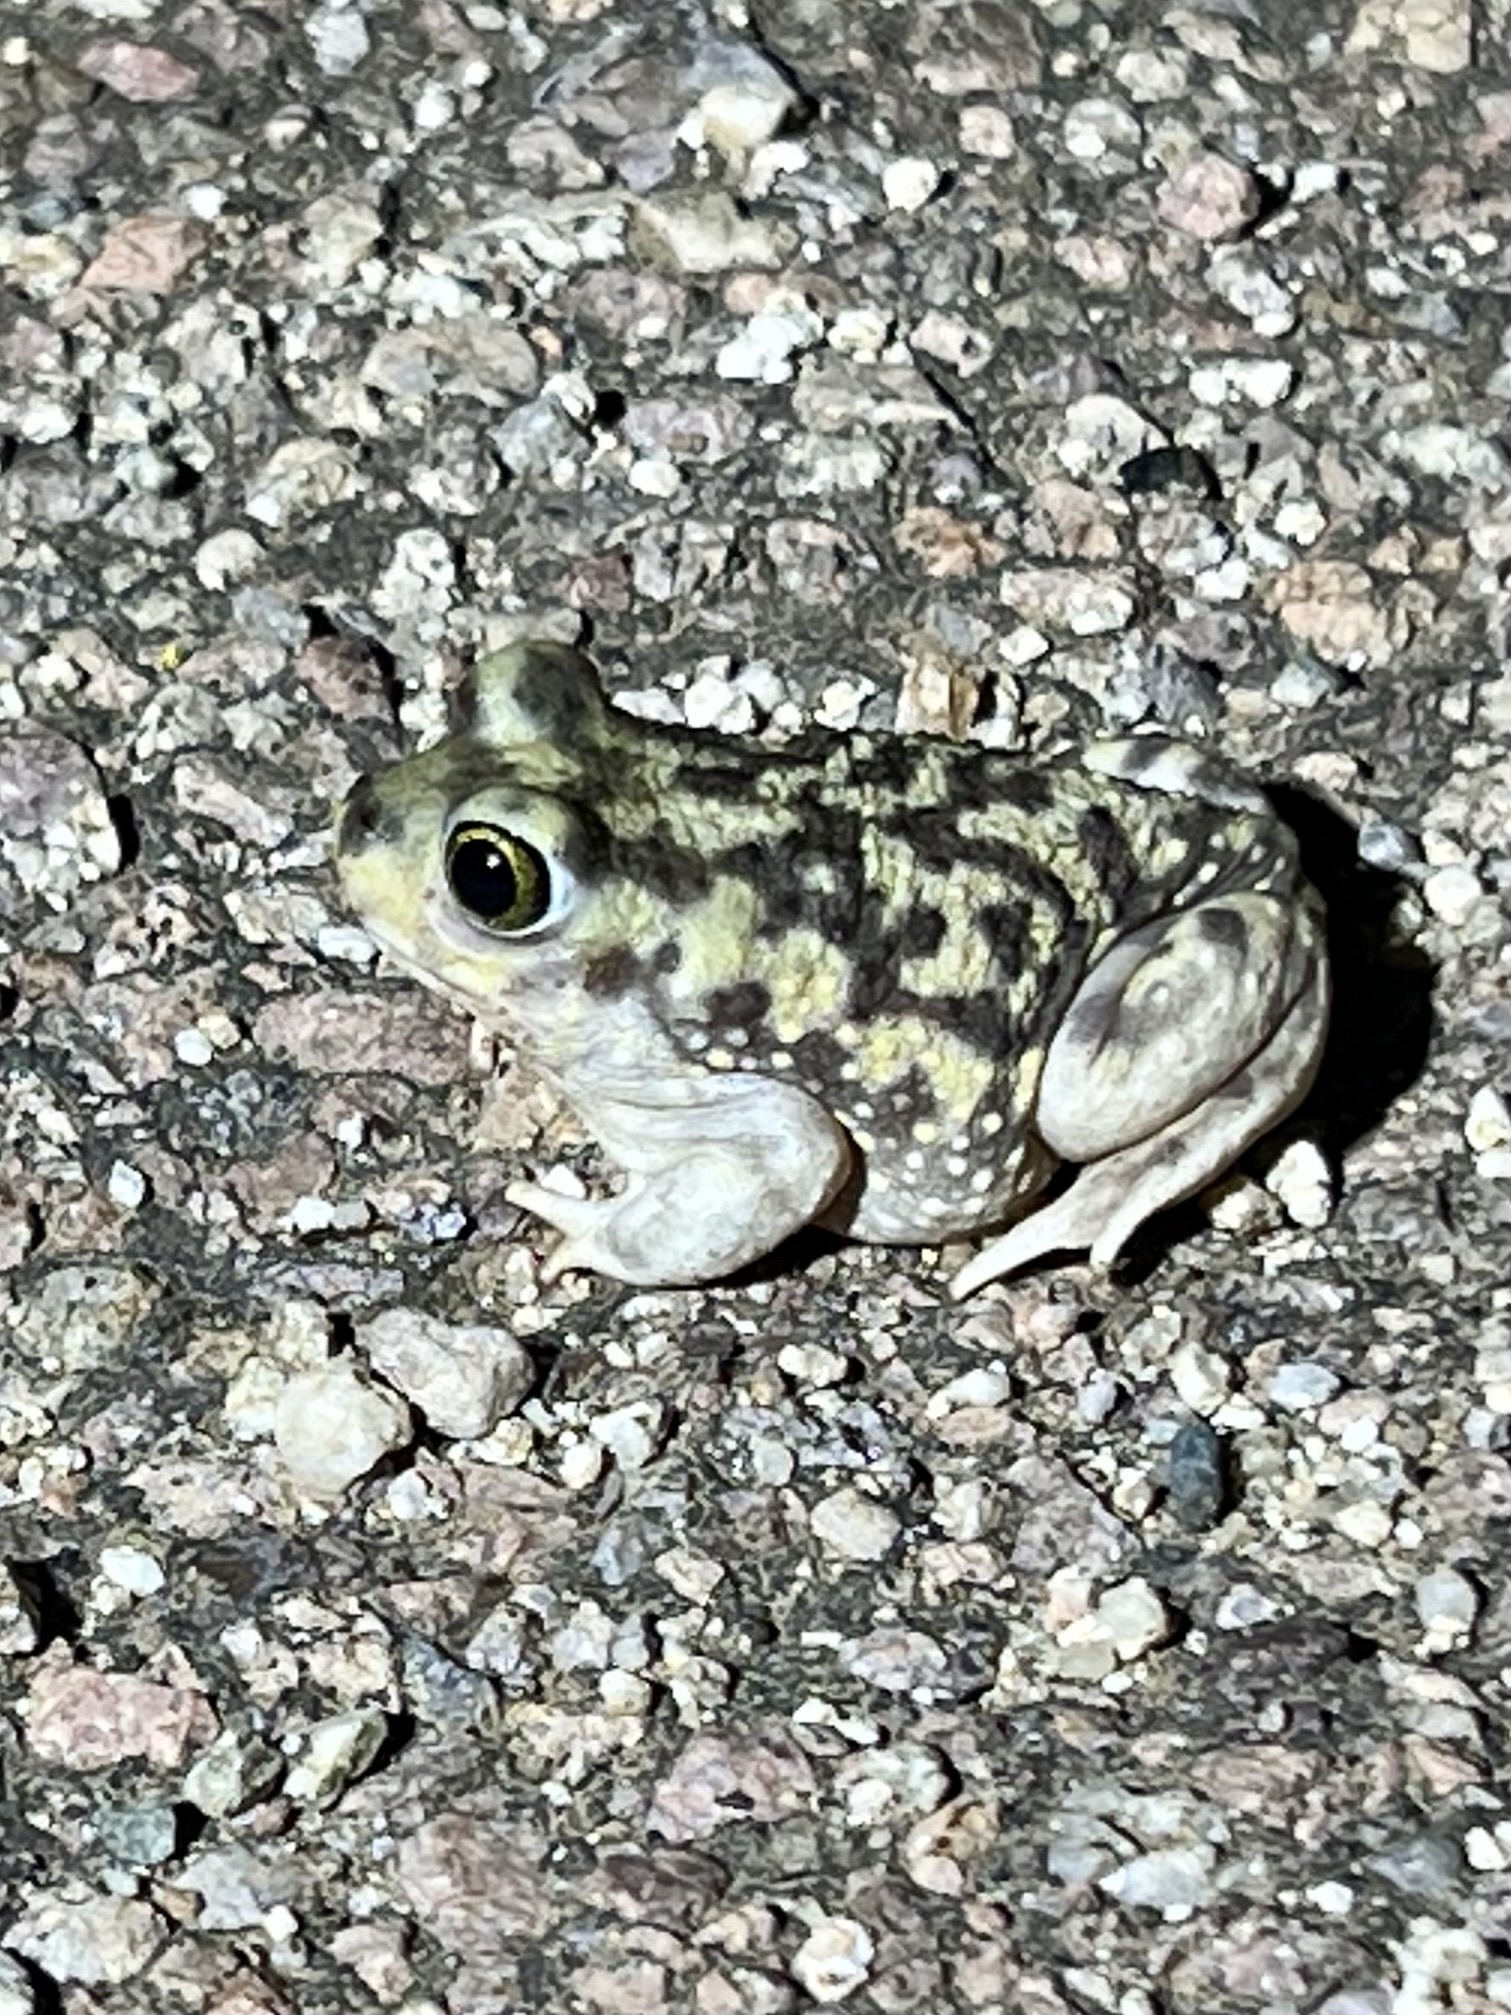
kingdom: Animalia
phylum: Chordata
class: Amphibia
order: Anura
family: Scaphiopodidae
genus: Scaphiopus
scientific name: Scaphiopus couchii
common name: Couch's spadefoot toad
